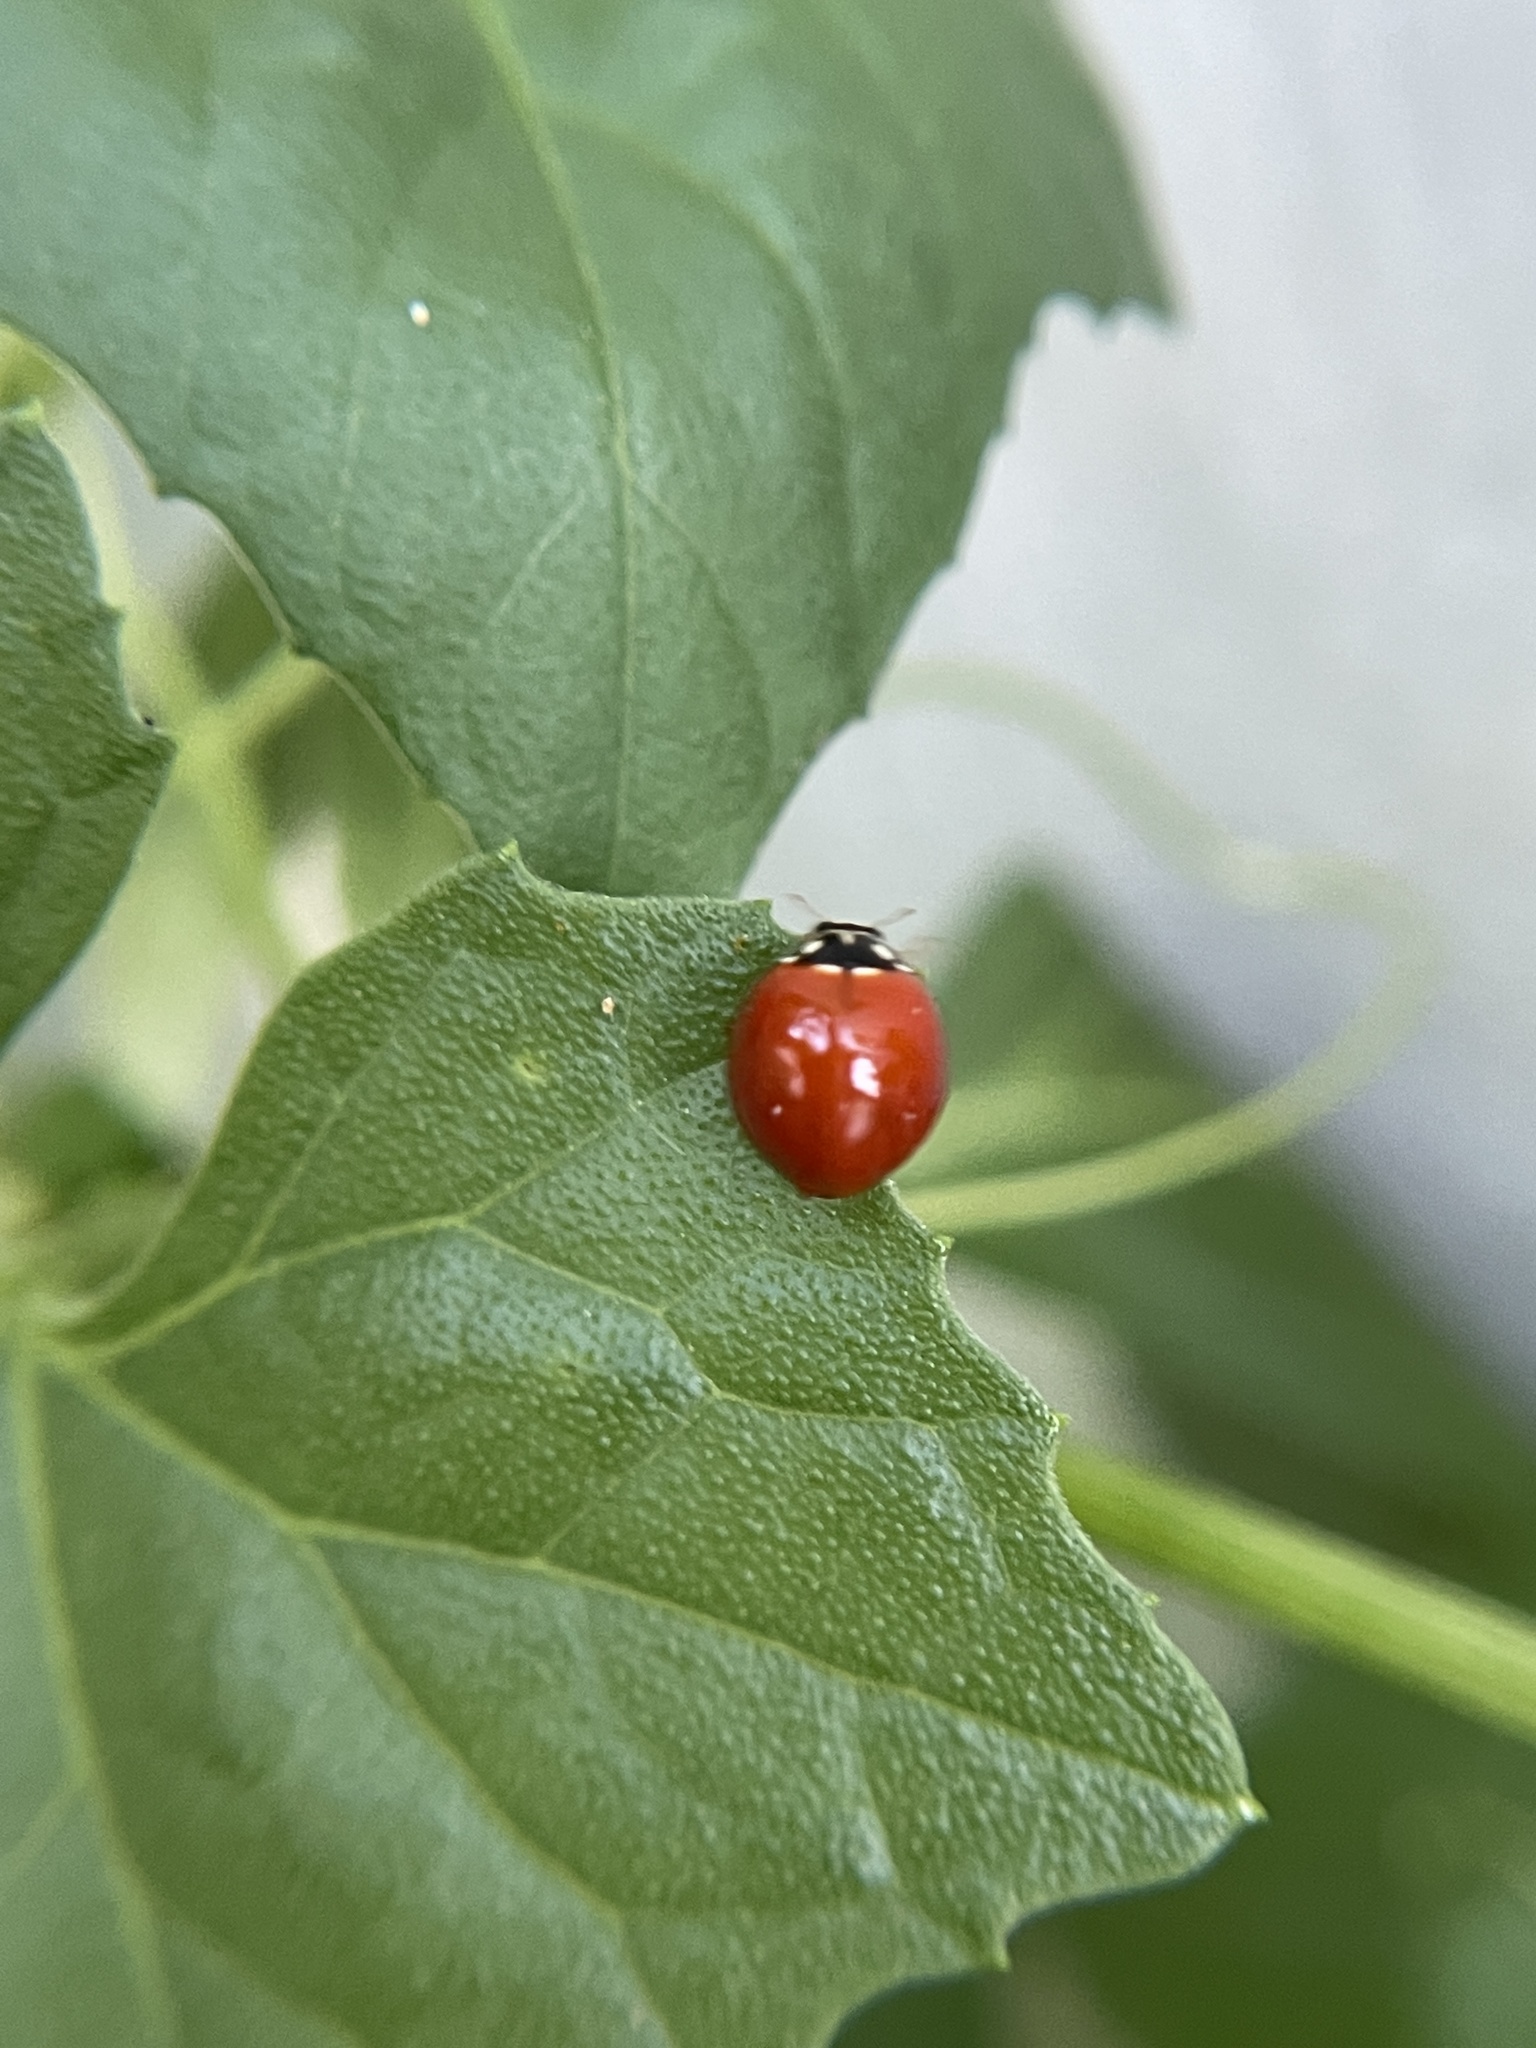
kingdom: Animalia
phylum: Arthropoda
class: Insecta
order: Coleoptera
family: Coccinellidae
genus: Cycloneda
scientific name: Cycloneda sanguinea
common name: Ladybird beetle
